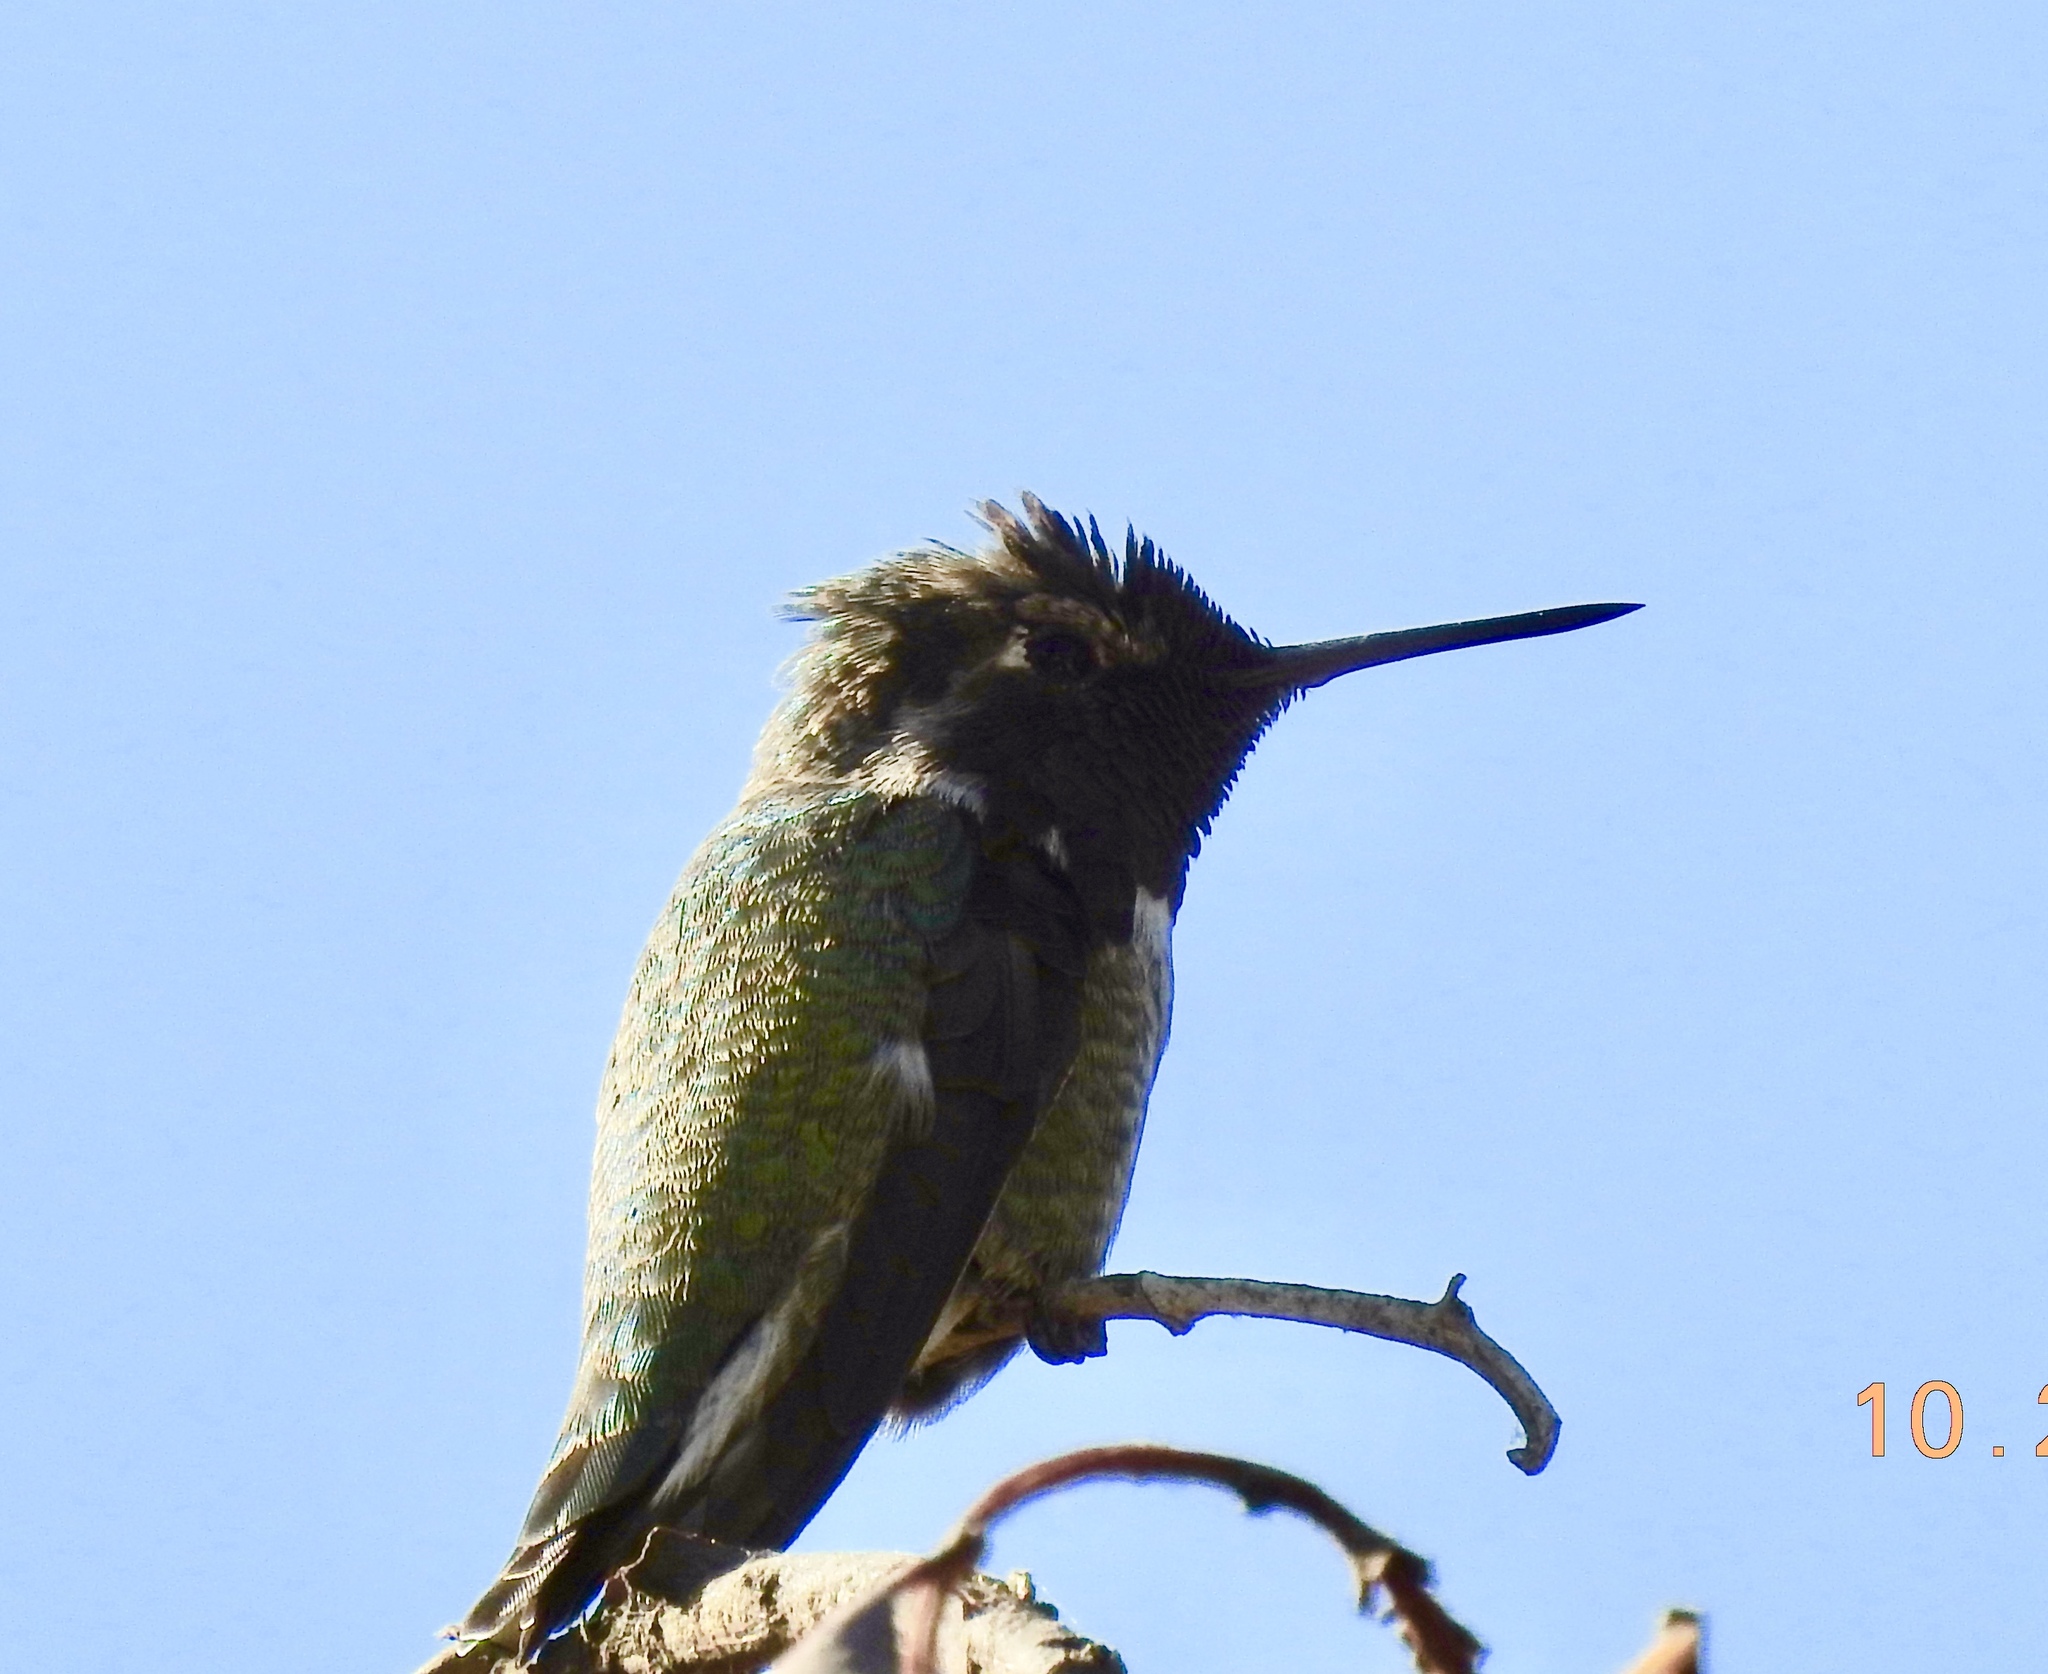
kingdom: Animalia
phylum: Chordata
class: Aves
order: Apodiformes
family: Trochilidae
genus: Calypte
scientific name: Calypte anna
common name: Anna's hummingbird
